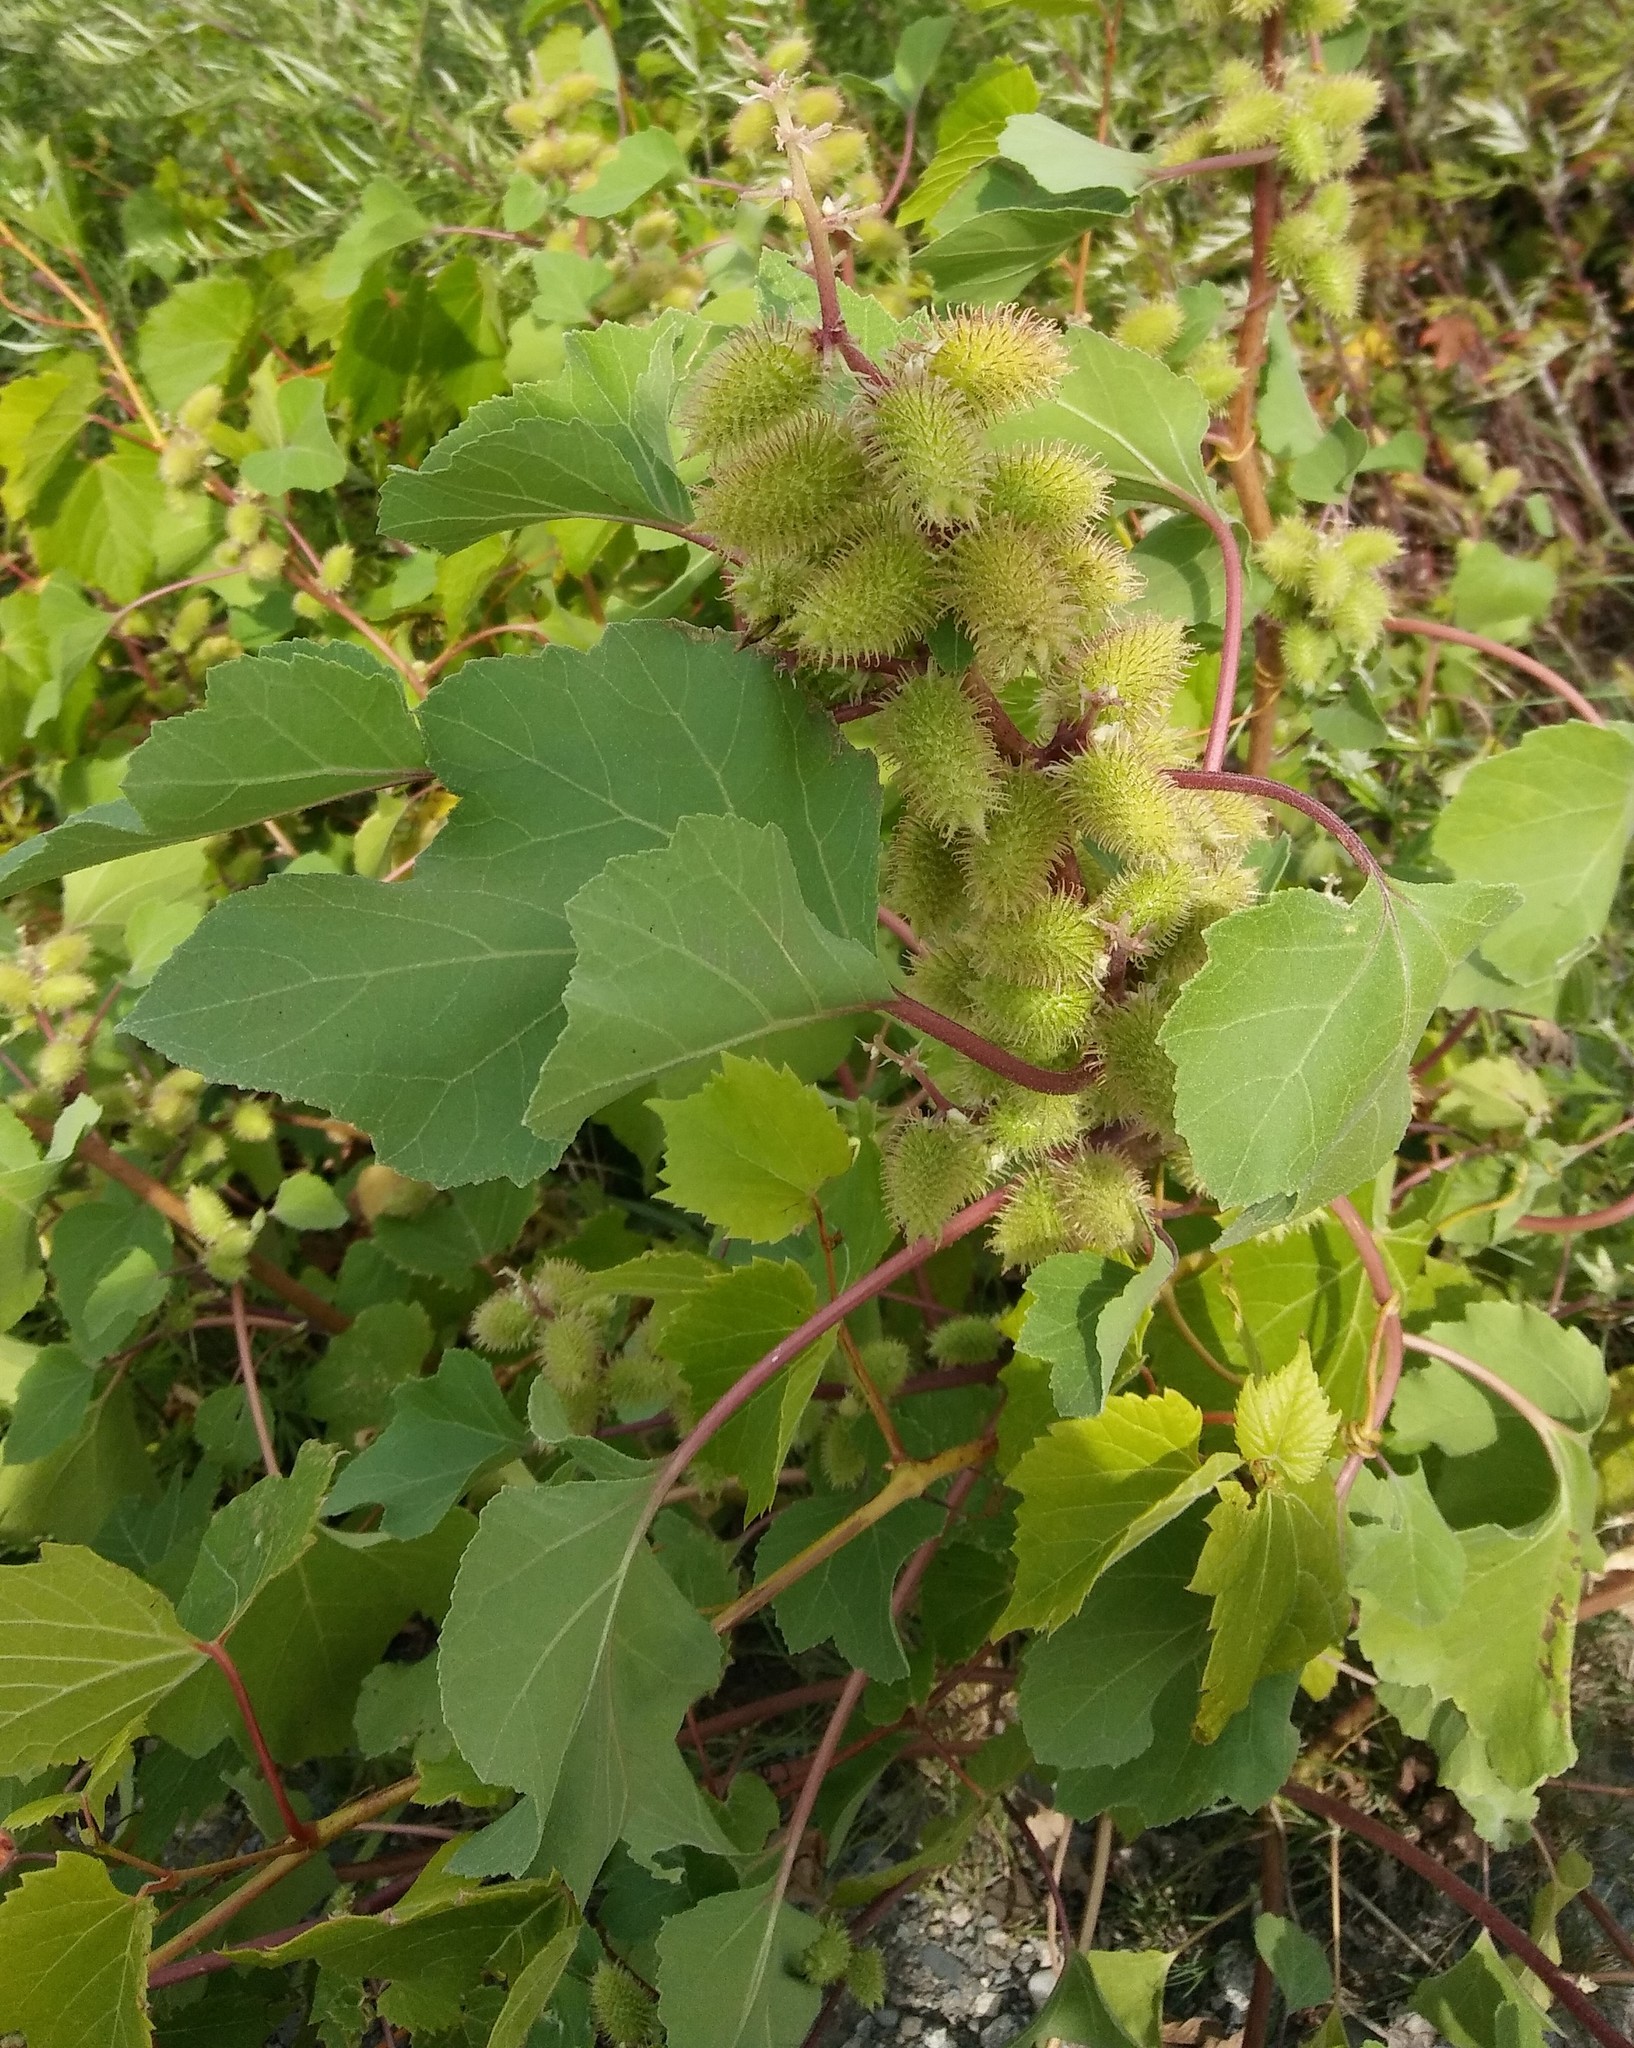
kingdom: Plantae
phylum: Tracheophyta
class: Magnoliopsida
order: Asterales
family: Asteraceae
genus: Xanthium
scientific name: Xanthium strumarium
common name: Rough cocklebur
